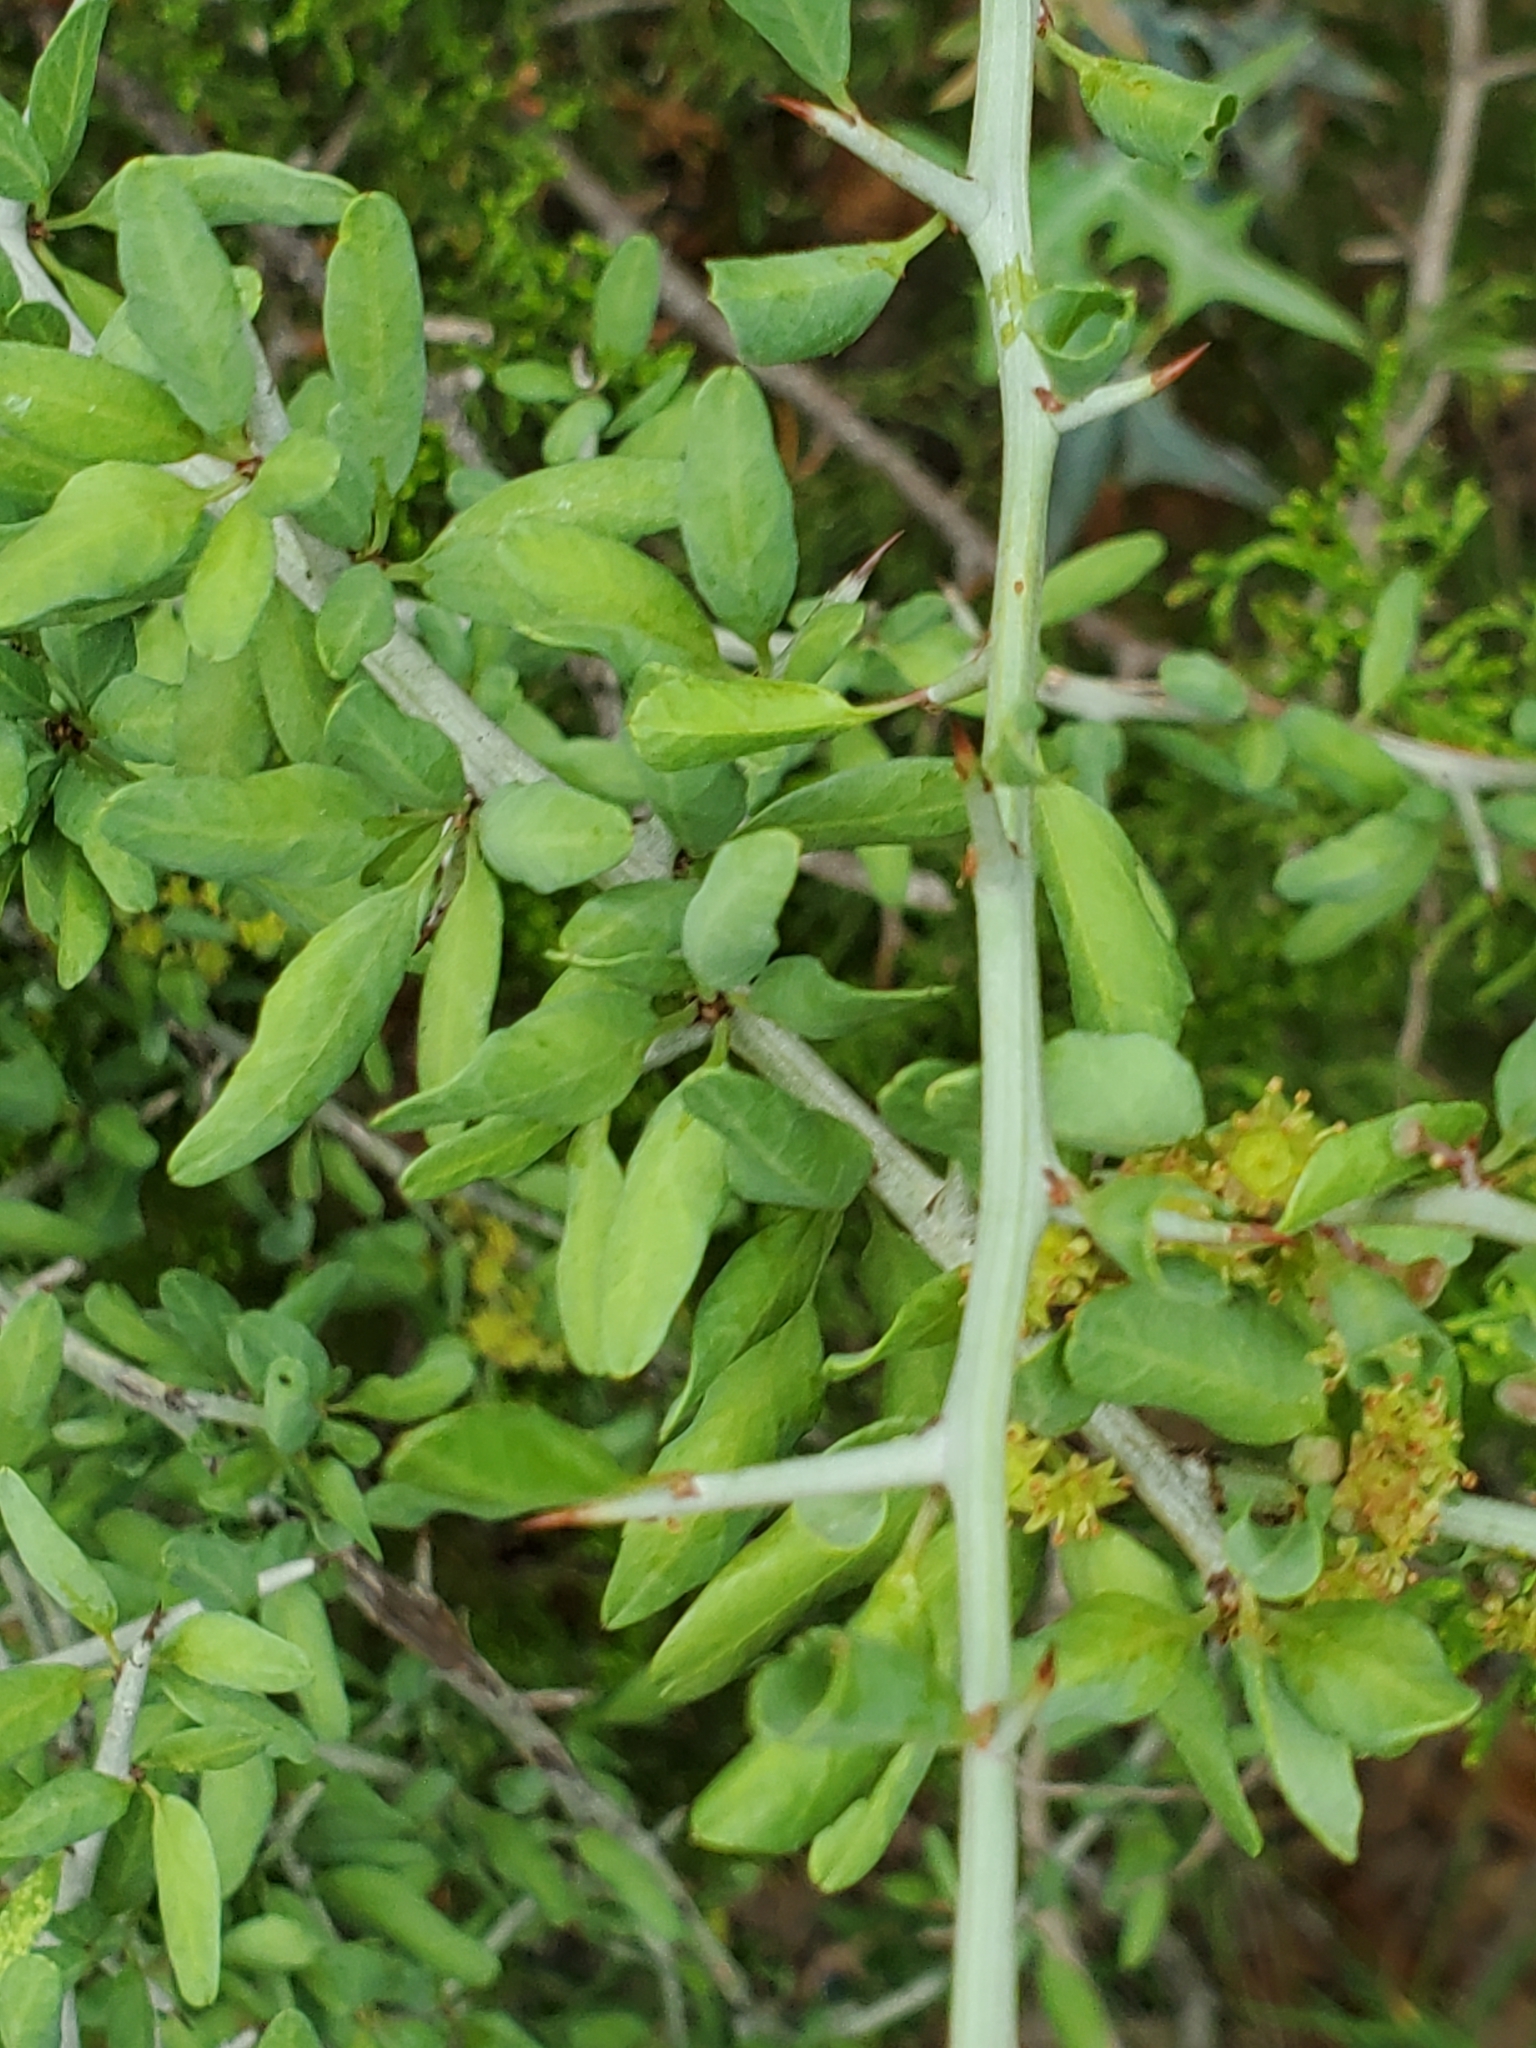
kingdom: Plantae
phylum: Tracheophyta
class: Magnoliopsida
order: Rosales
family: Rhamnaceae
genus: Sarcomphalus
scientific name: Sarcomphalus obtusifolius
